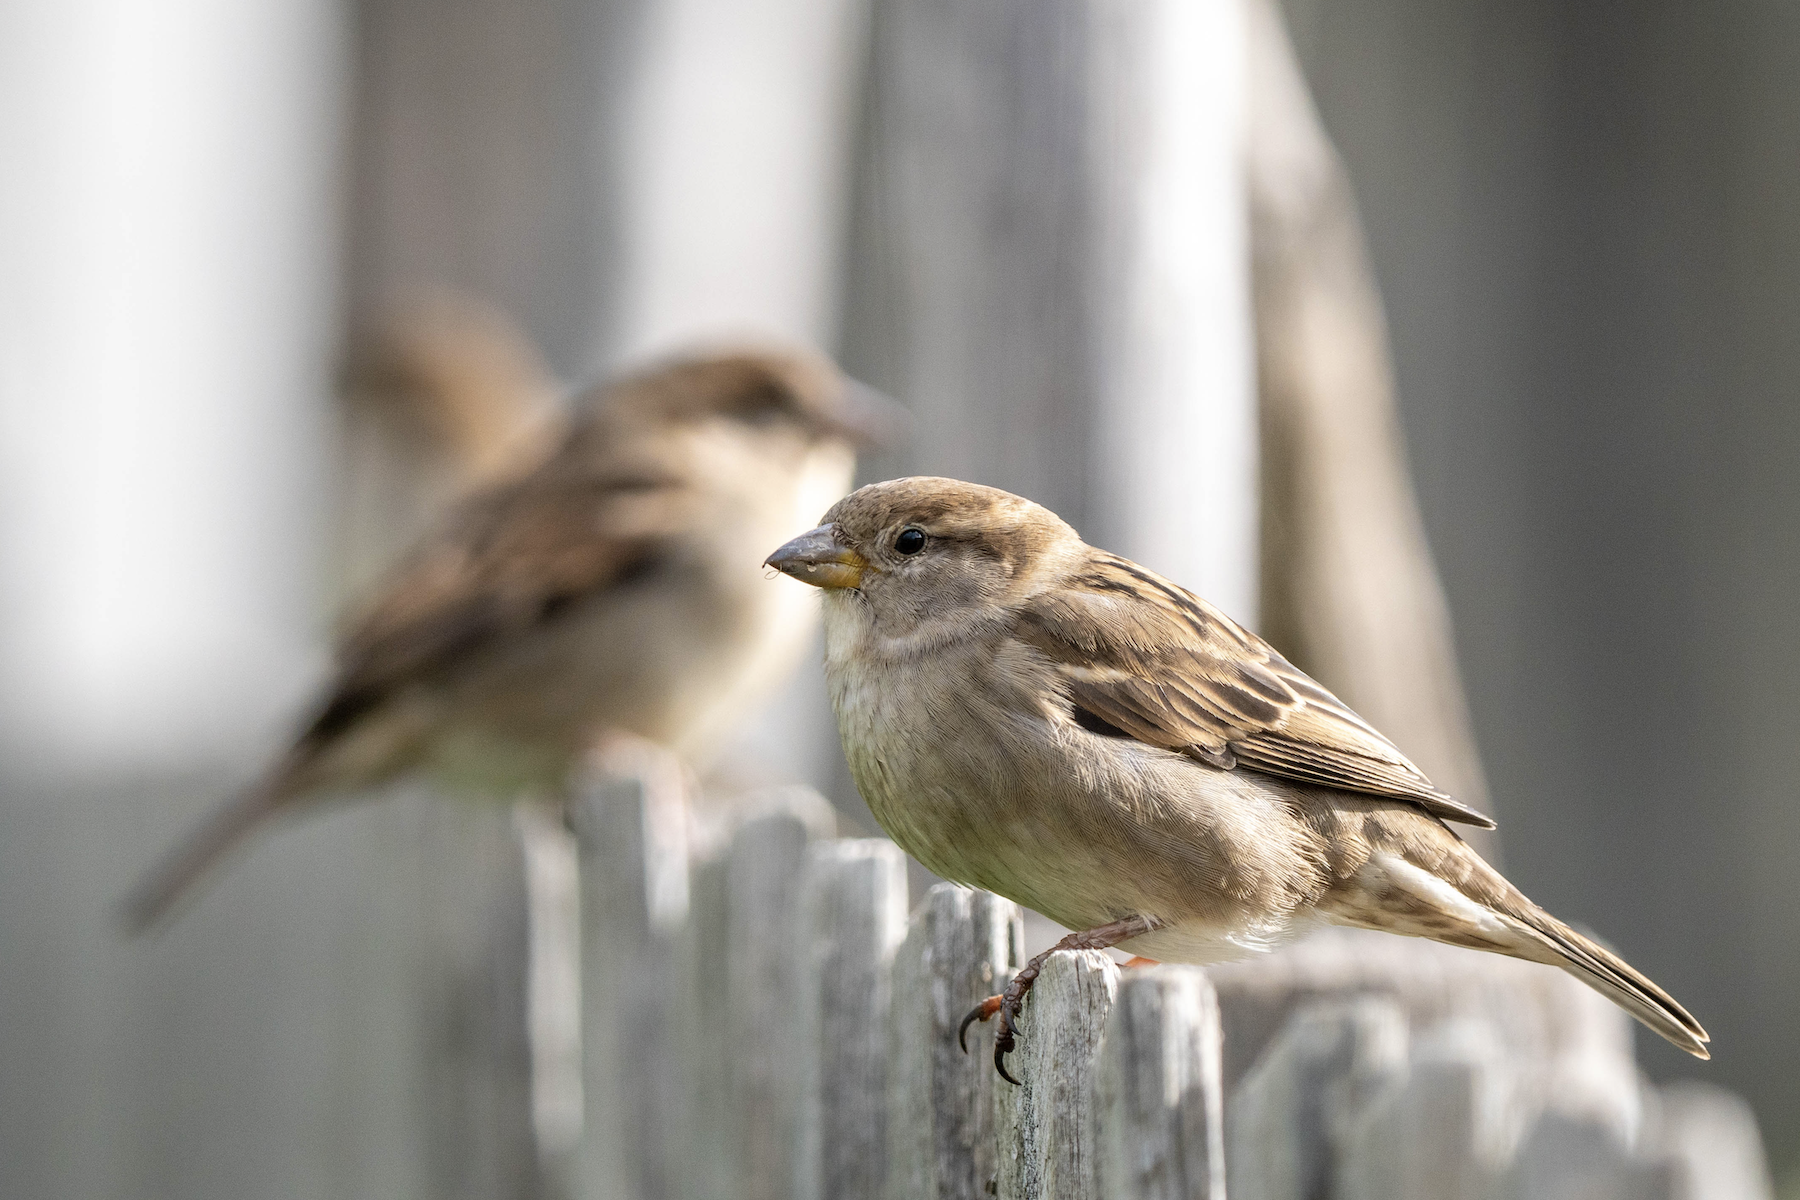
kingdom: Animalia
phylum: Chordata
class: Aves
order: Passeriformes
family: Passeridae
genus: Passer
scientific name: Passer domesticus
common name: House sparrow
